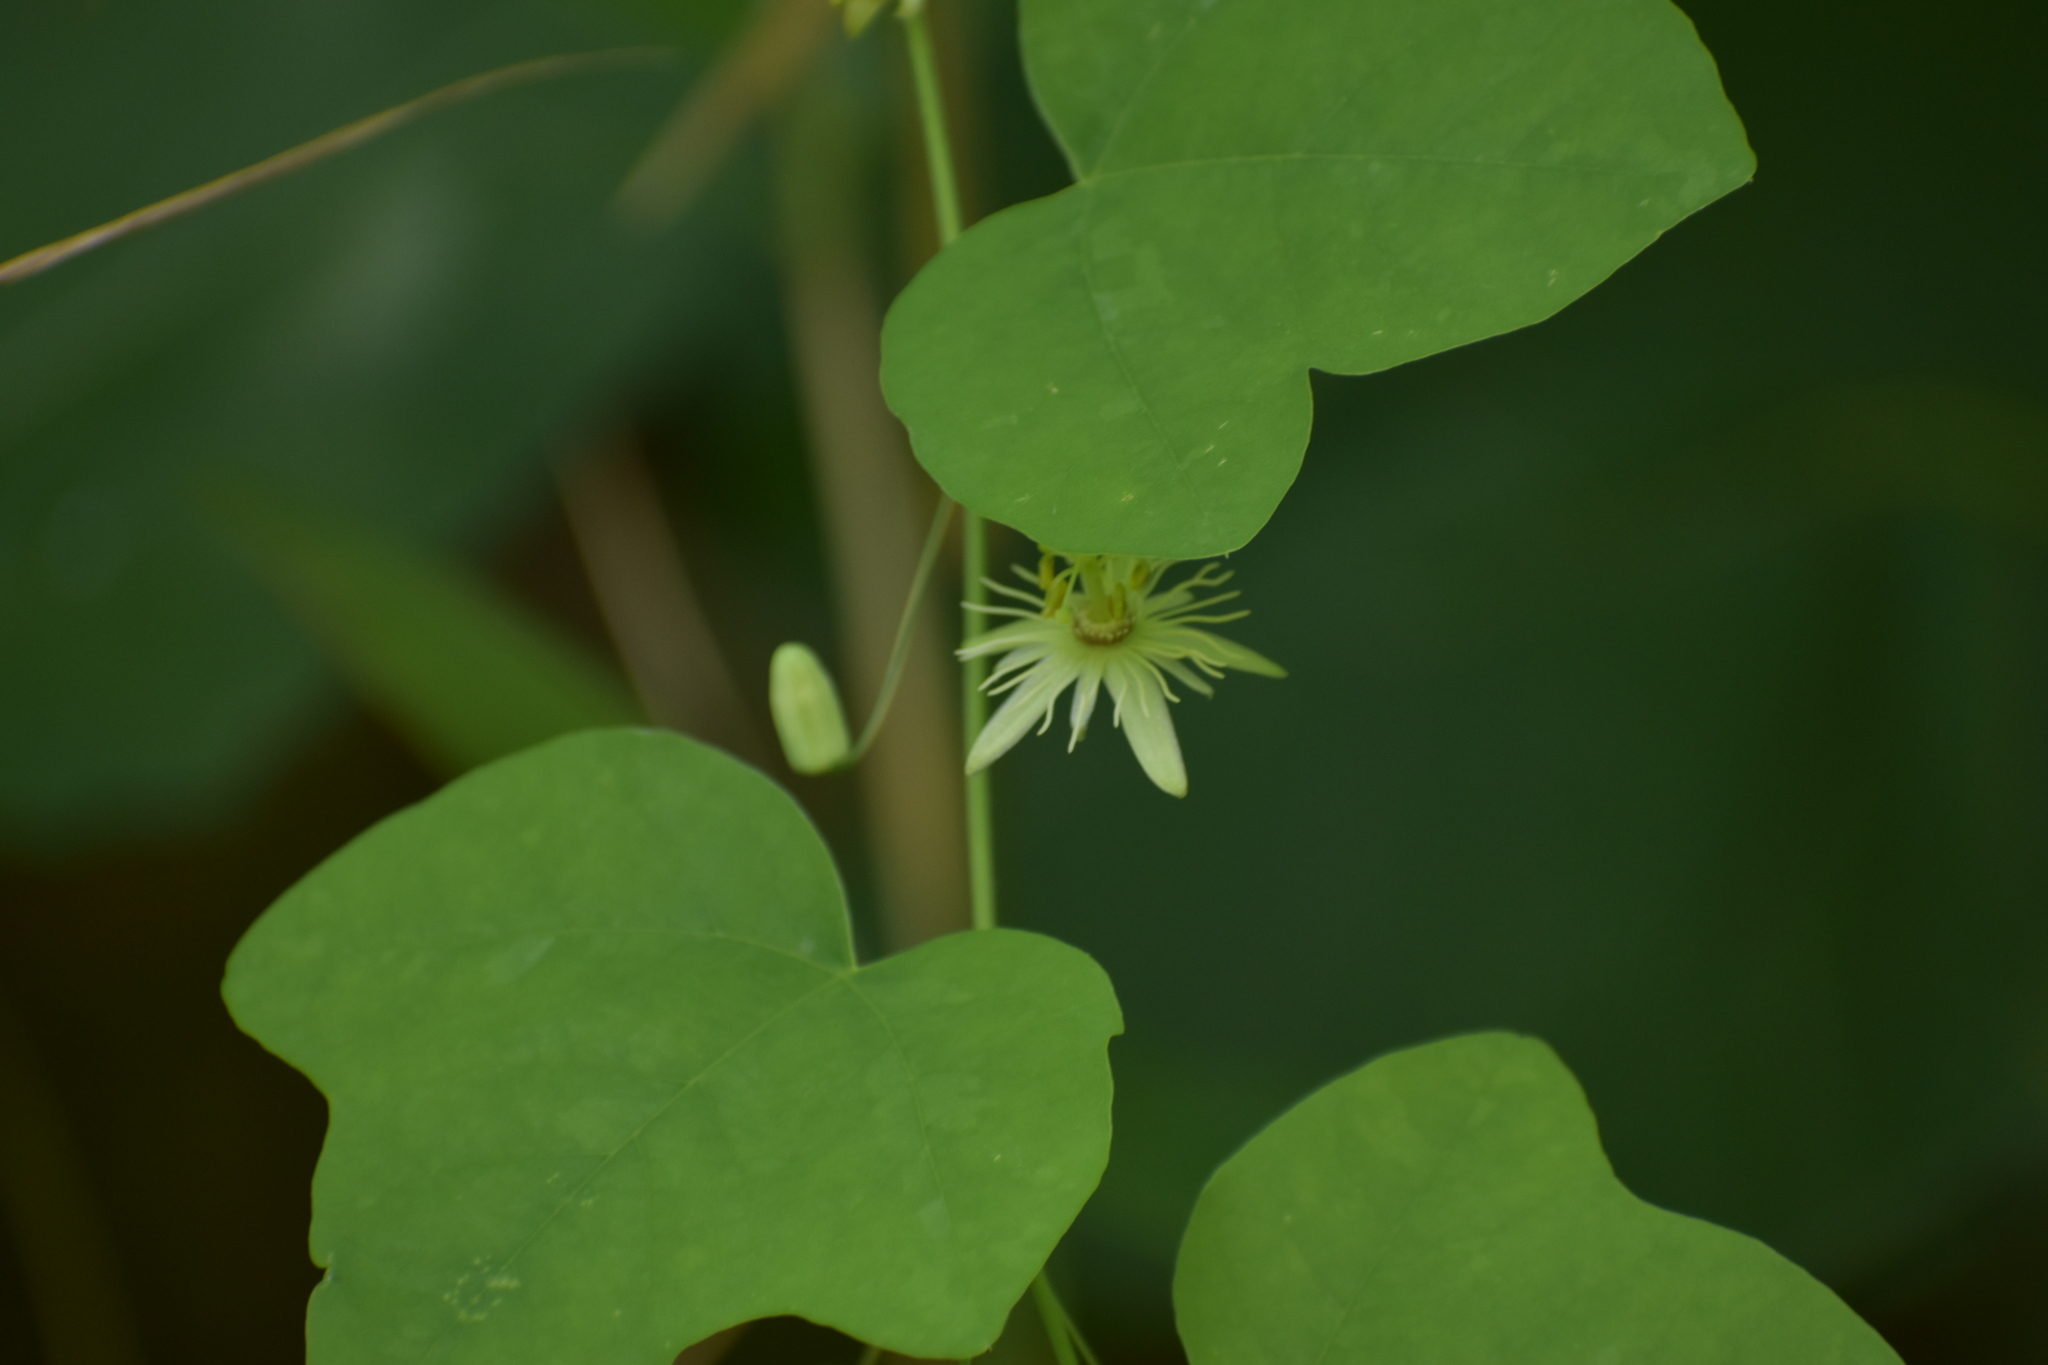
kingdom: Plantae
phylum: Tracheophyta
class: Magnoliopsida
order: Malpighiales
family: Passifloraceae
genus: Passiflora
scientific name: Passiflora lutea
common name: Yellow passionflower
